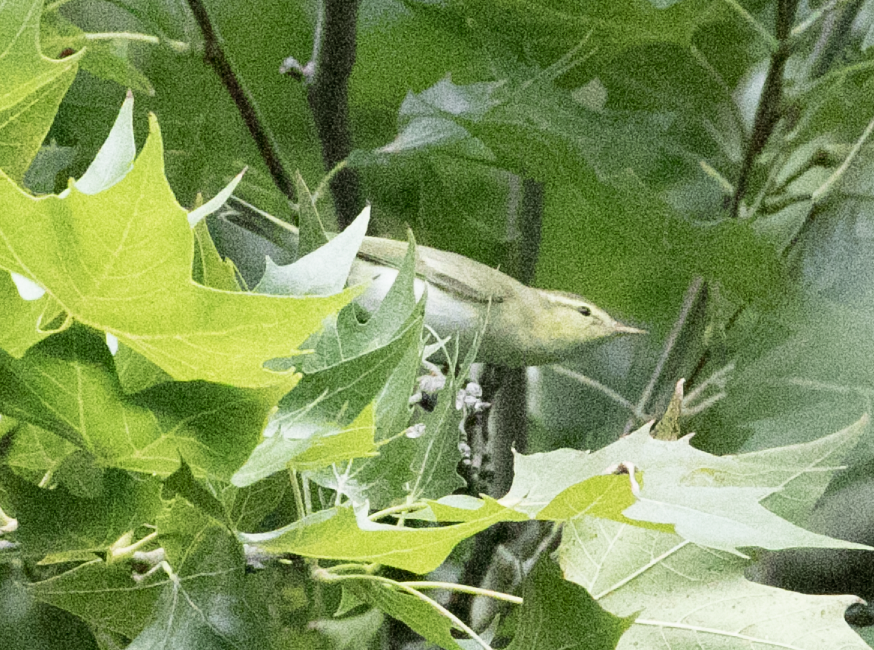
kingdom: Animalia
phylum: Chordata
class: Aves
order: Passeriformes
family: Phylloscopidae
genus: Phylloscopus
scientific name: Phylloscopus sibillatrix
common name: Wood warbler
